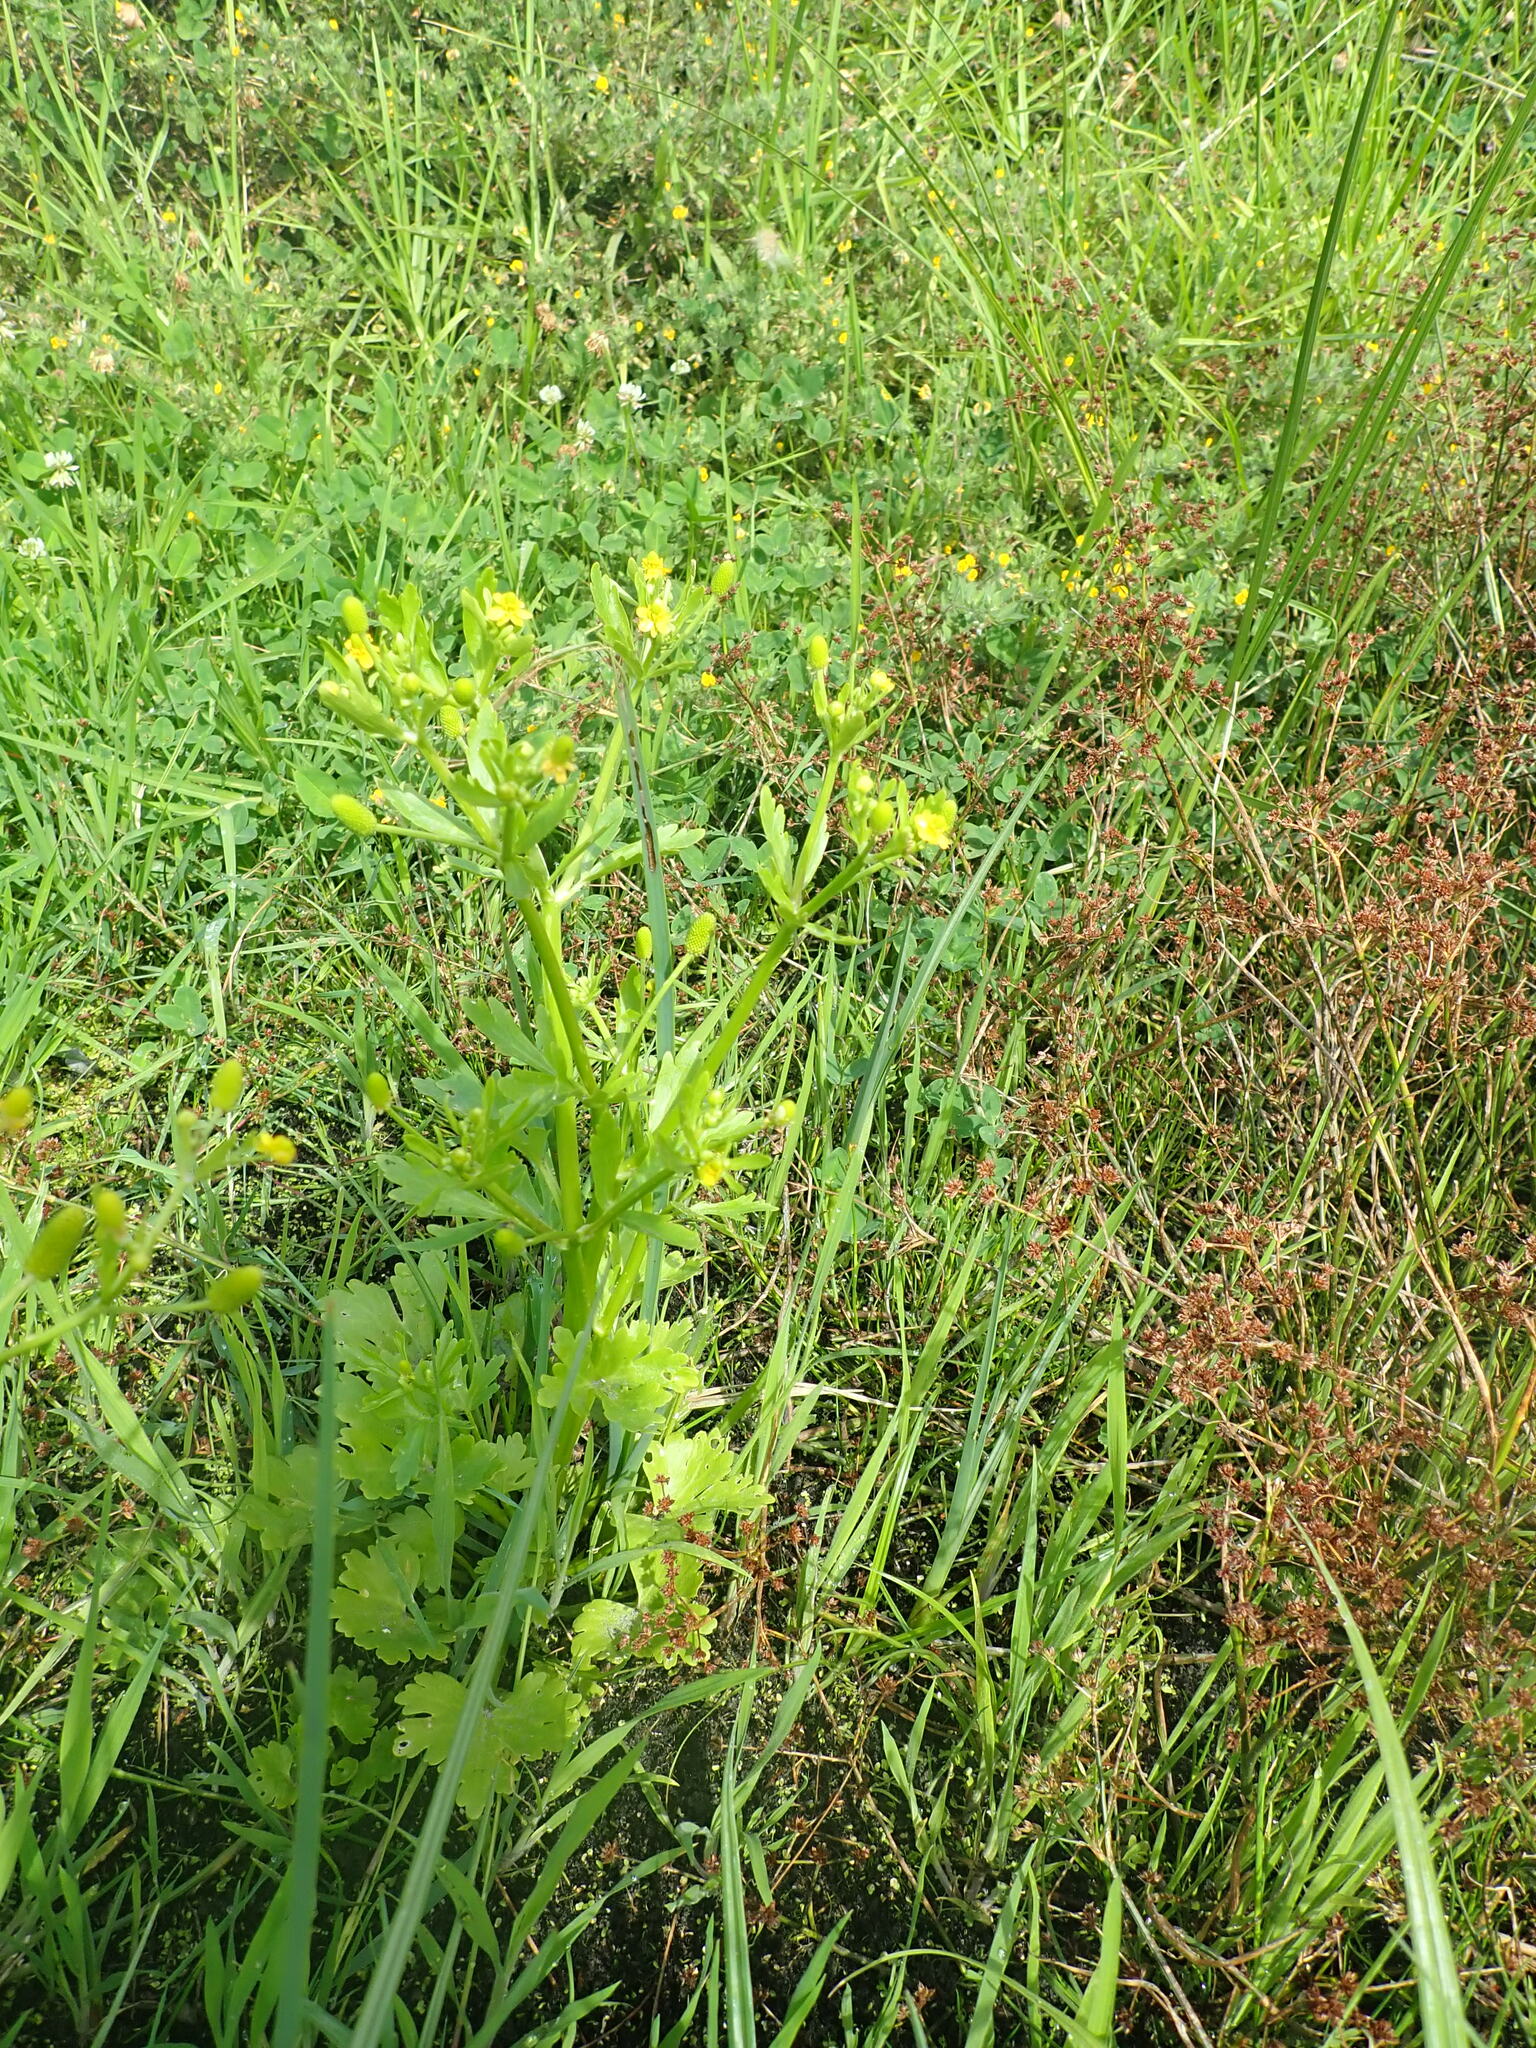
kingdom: Plantae
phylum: Tracheophyta
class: Magnoliopsida
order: Ranunculales
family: Ranunculaceae
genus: Ranunculus
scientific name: Ranunculus sceleratus
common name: Celery-leaved buttercup
